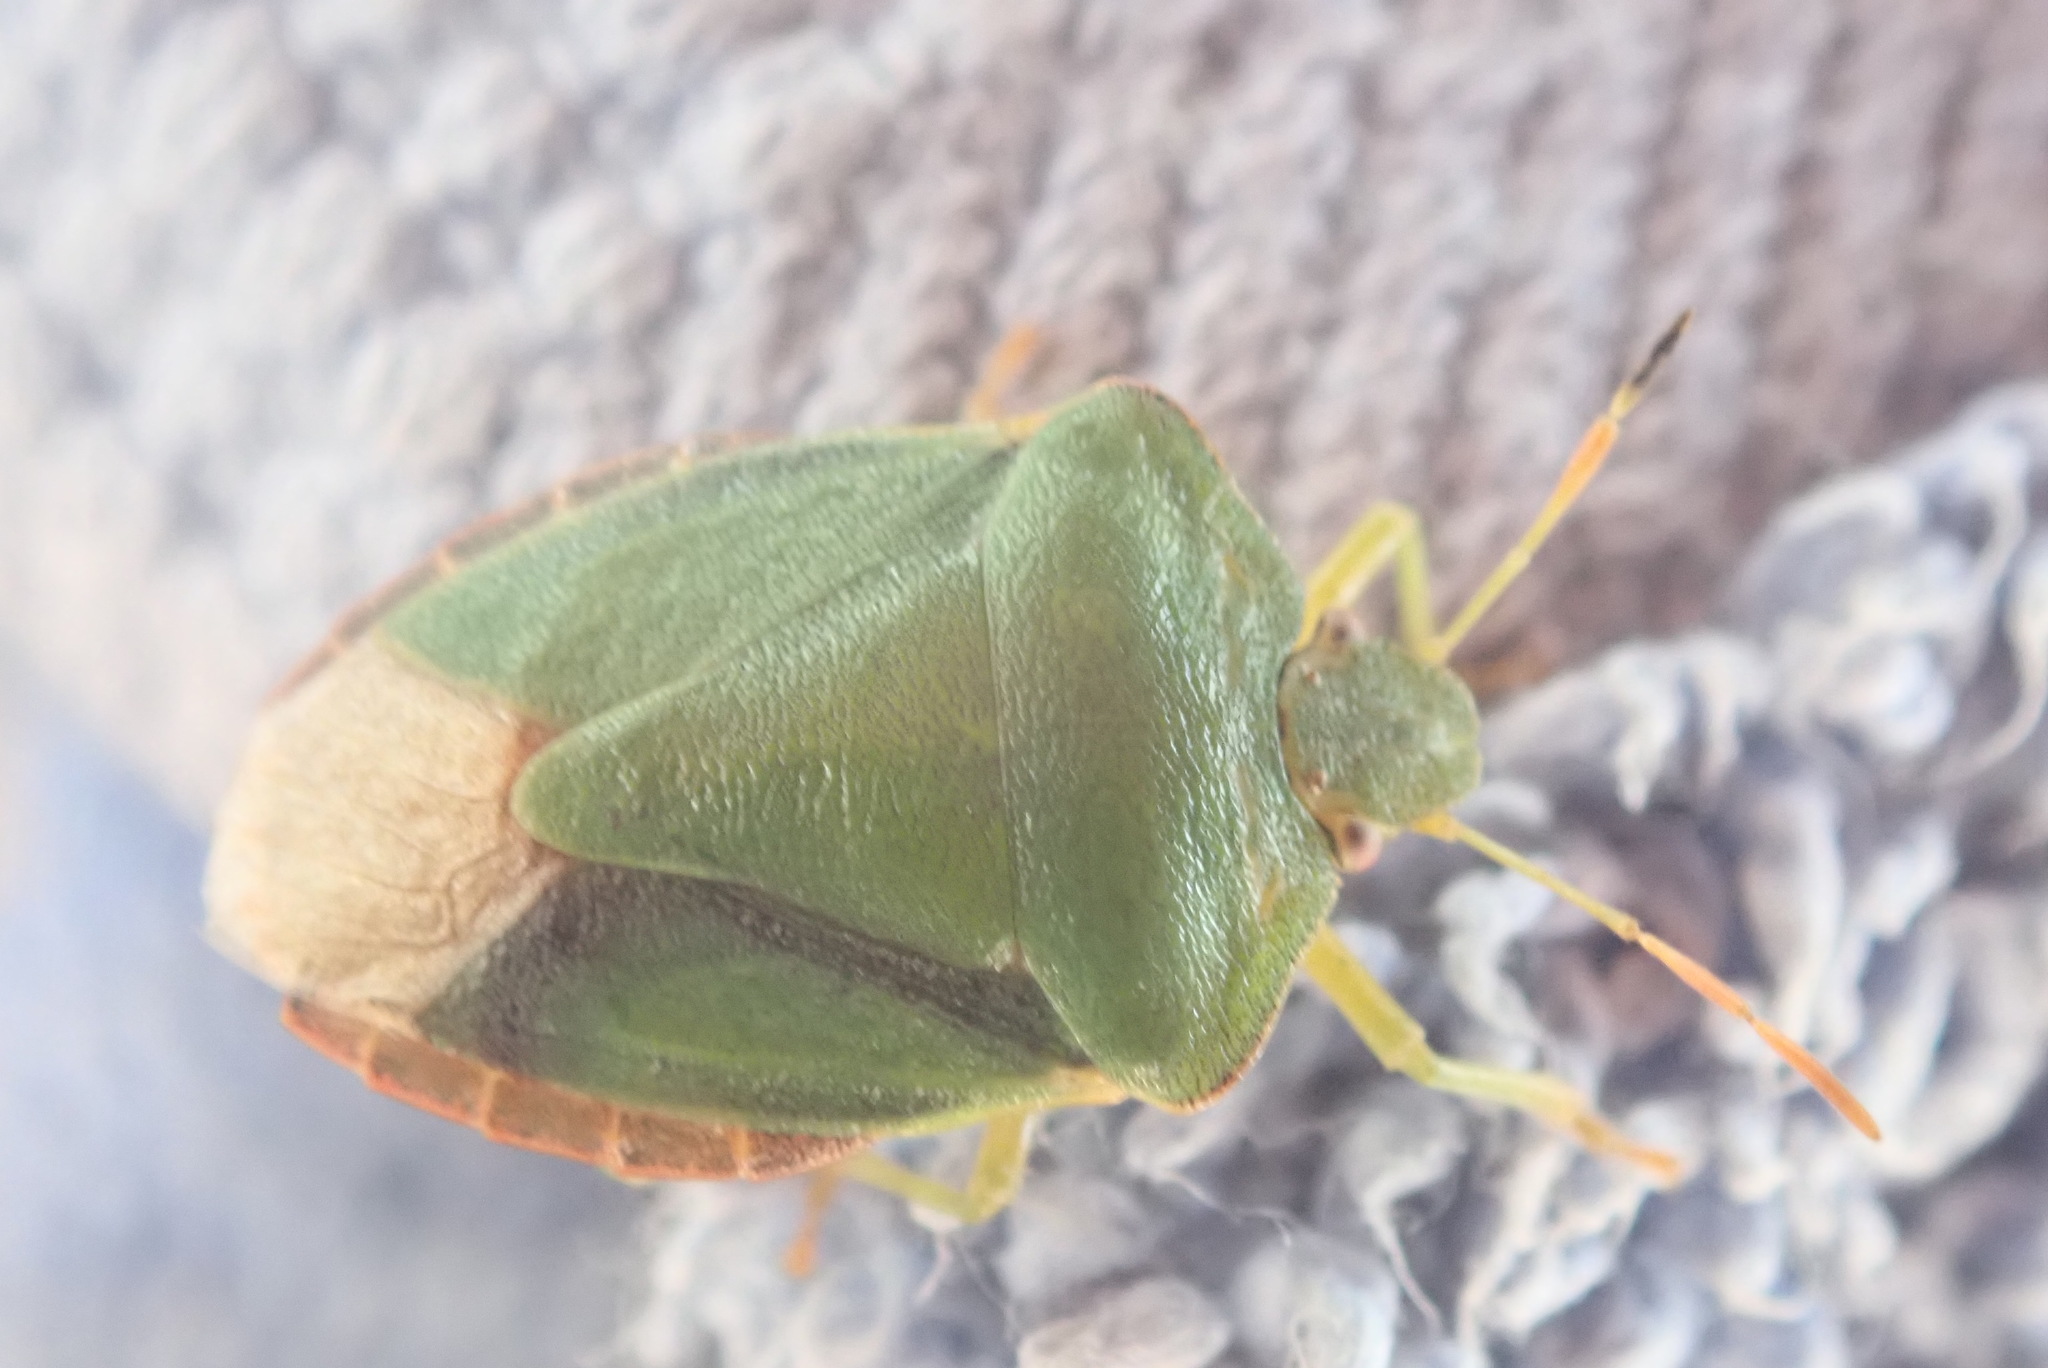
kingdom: Animalia
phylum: Arthropoda
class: Insecta
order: Hemiptera
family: Pentatomidae
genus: Palomena
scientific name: Palomena prasina
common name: Green shieldbug
